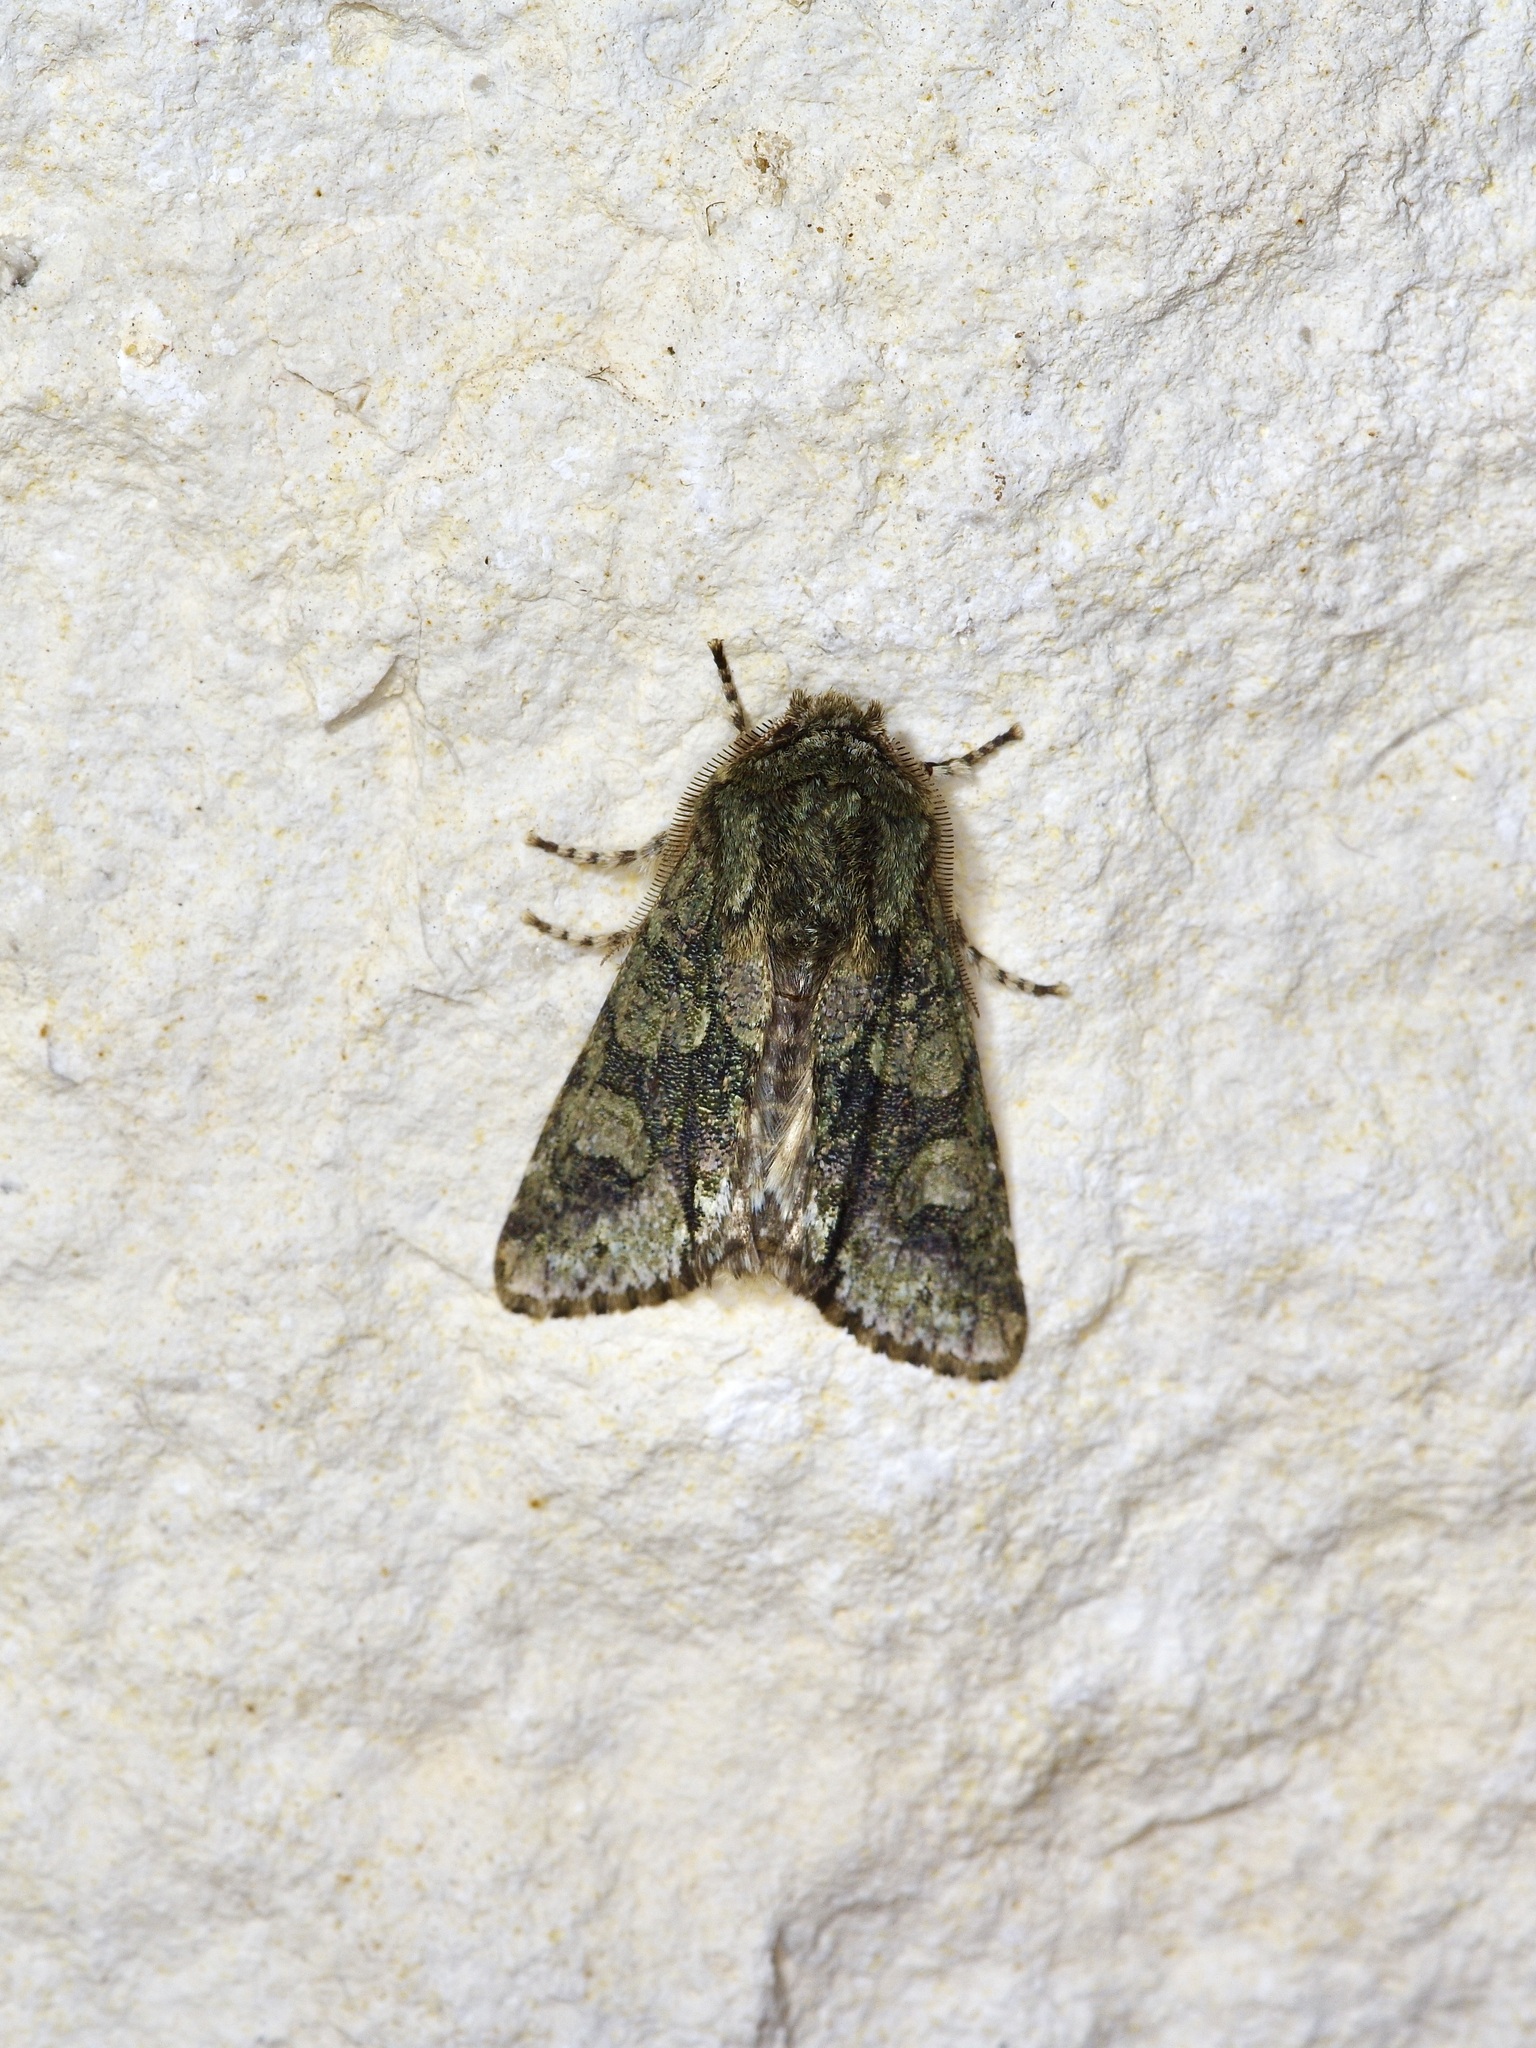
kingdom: Animalia
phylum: Arthropoda
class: Insecta
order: Lepidoptera
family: Noctuidae
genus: Psaphida
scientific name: Psaphida resumens
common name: Figure-eight sallow
